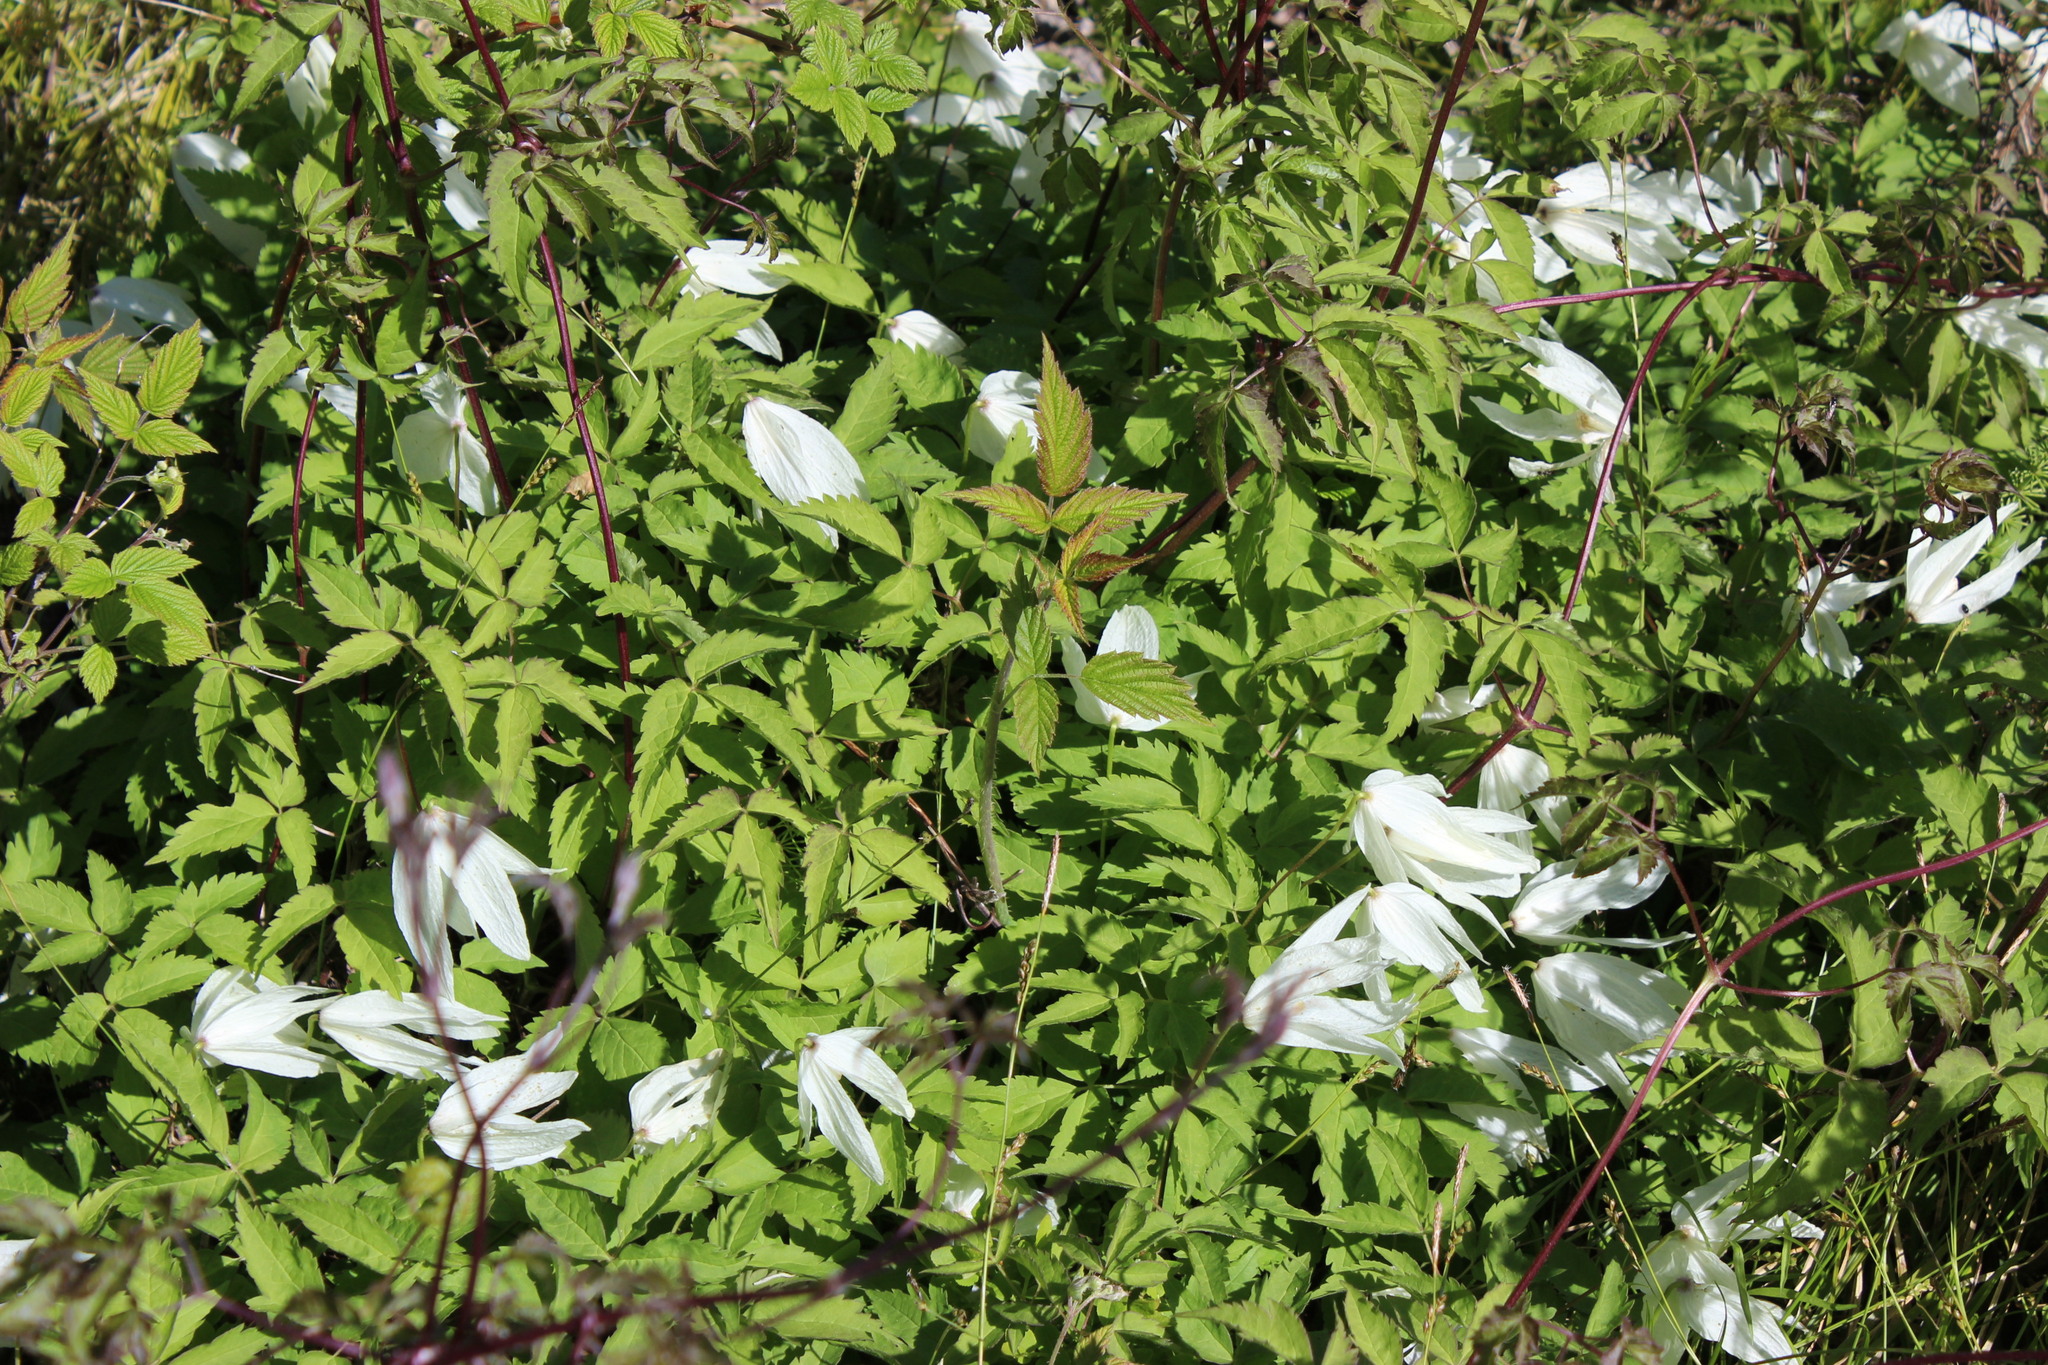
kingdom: Plantae
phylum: Tracheophyta
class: Magnoliopsida
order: Ranunculales
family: Ranunculaceae
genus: Clematis
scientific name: Clematis sibirica
